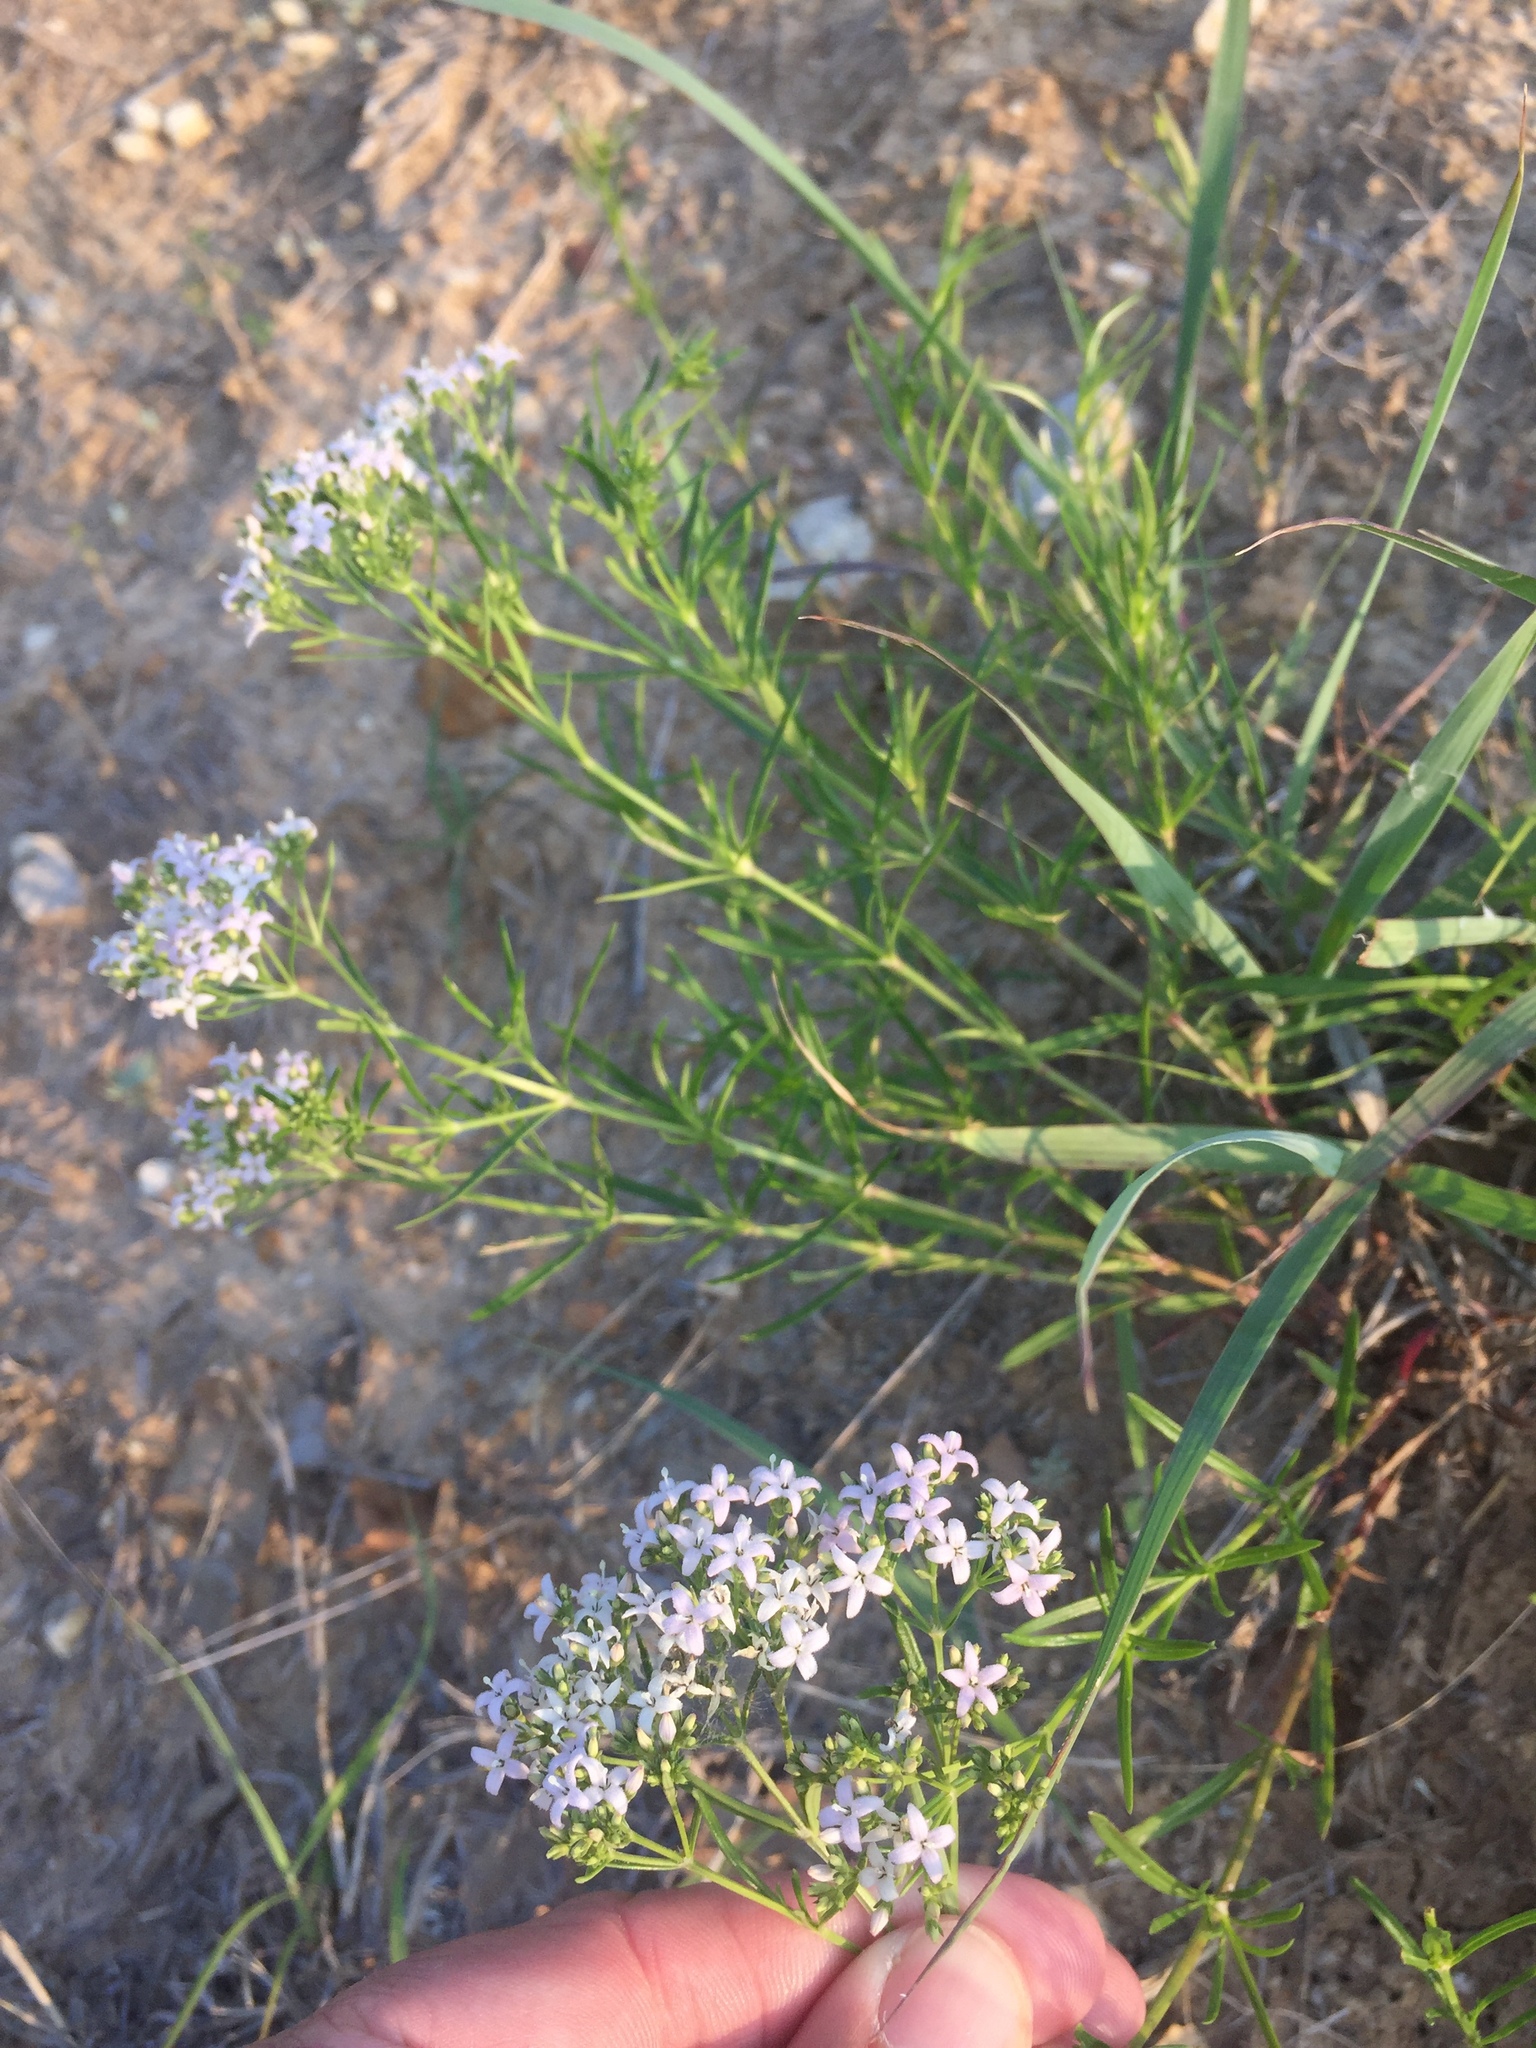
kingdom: Plantae
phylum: Tracheophyta
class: Magnoliopsida
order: Gentianales
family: Rubiaceae
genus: Stenaria
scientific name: Stenaria nigricans
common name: Diamondflowers
